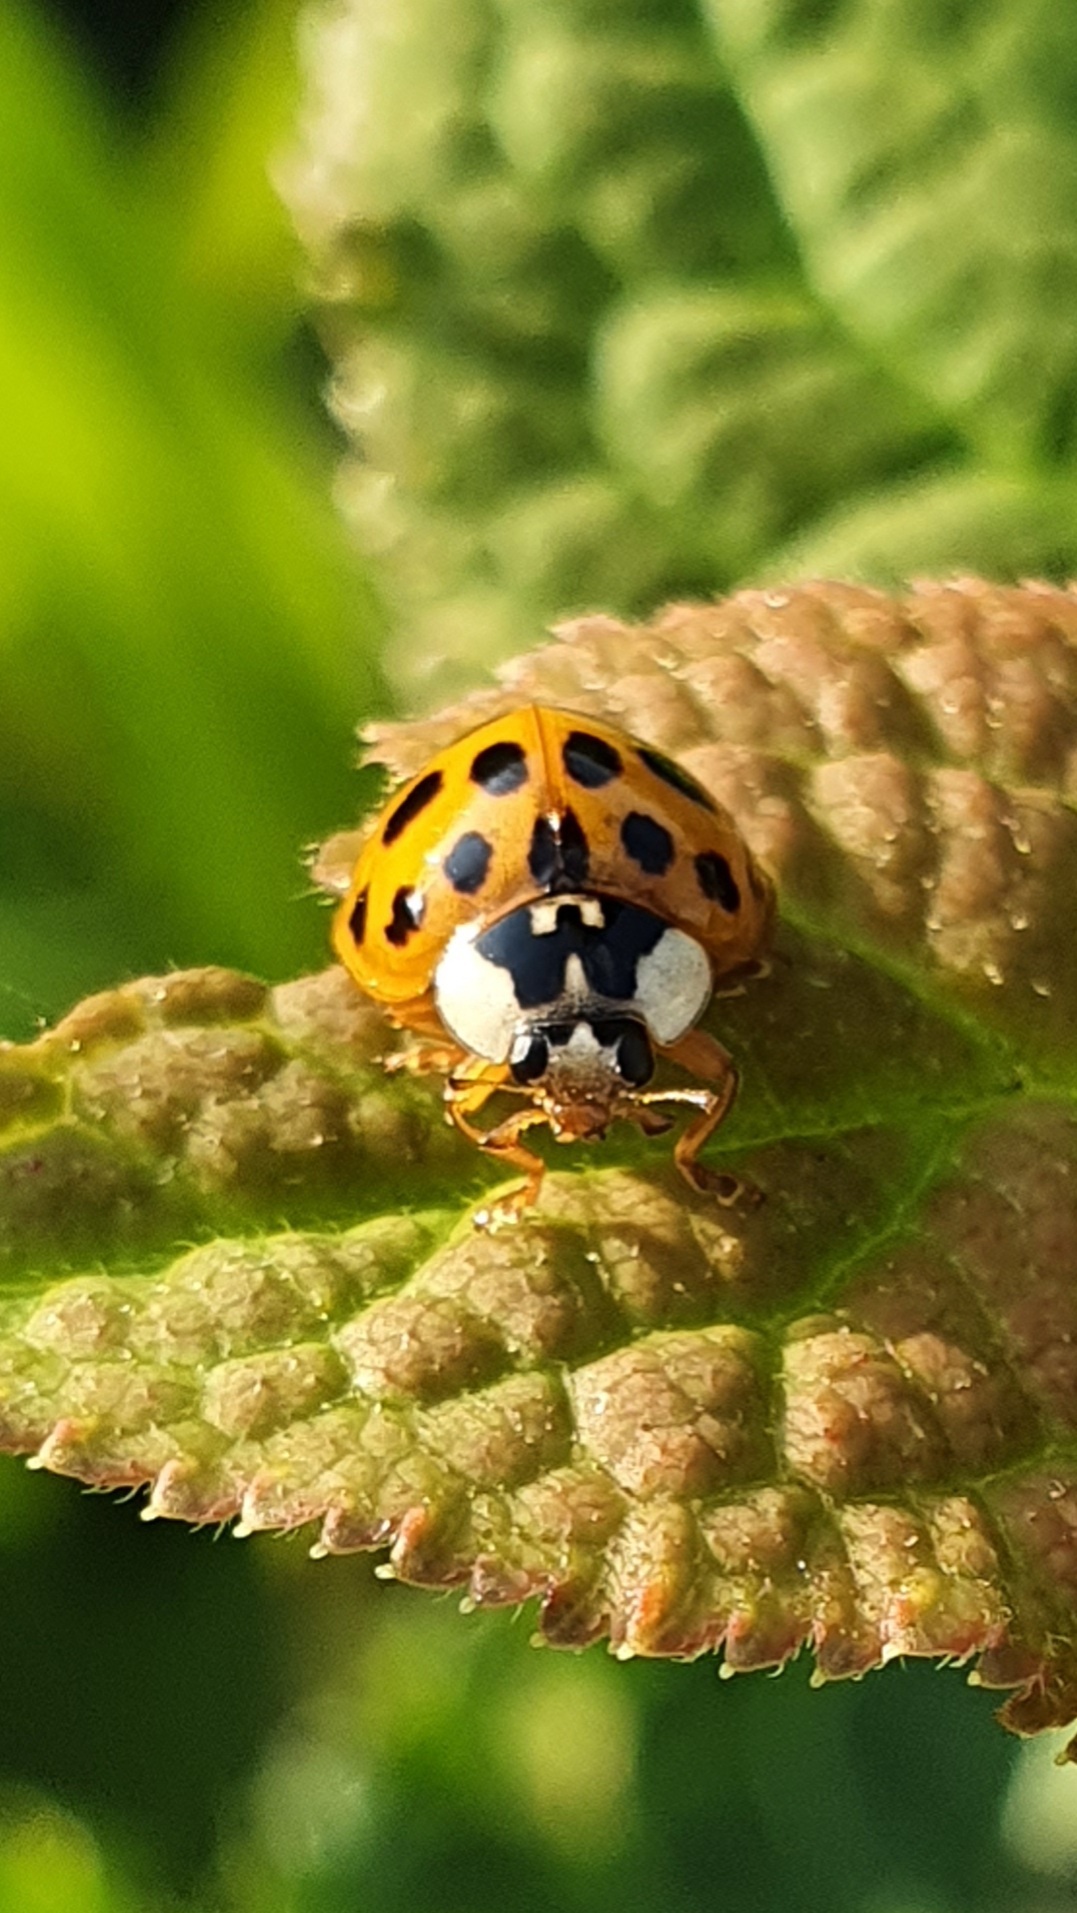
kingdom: Animalia
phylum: Arthropoda
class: Insecta
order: Coleoptera
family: Coccinellidae
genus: Harmonia
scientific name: Harmonia axyridis
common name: Harlequin ladybird
